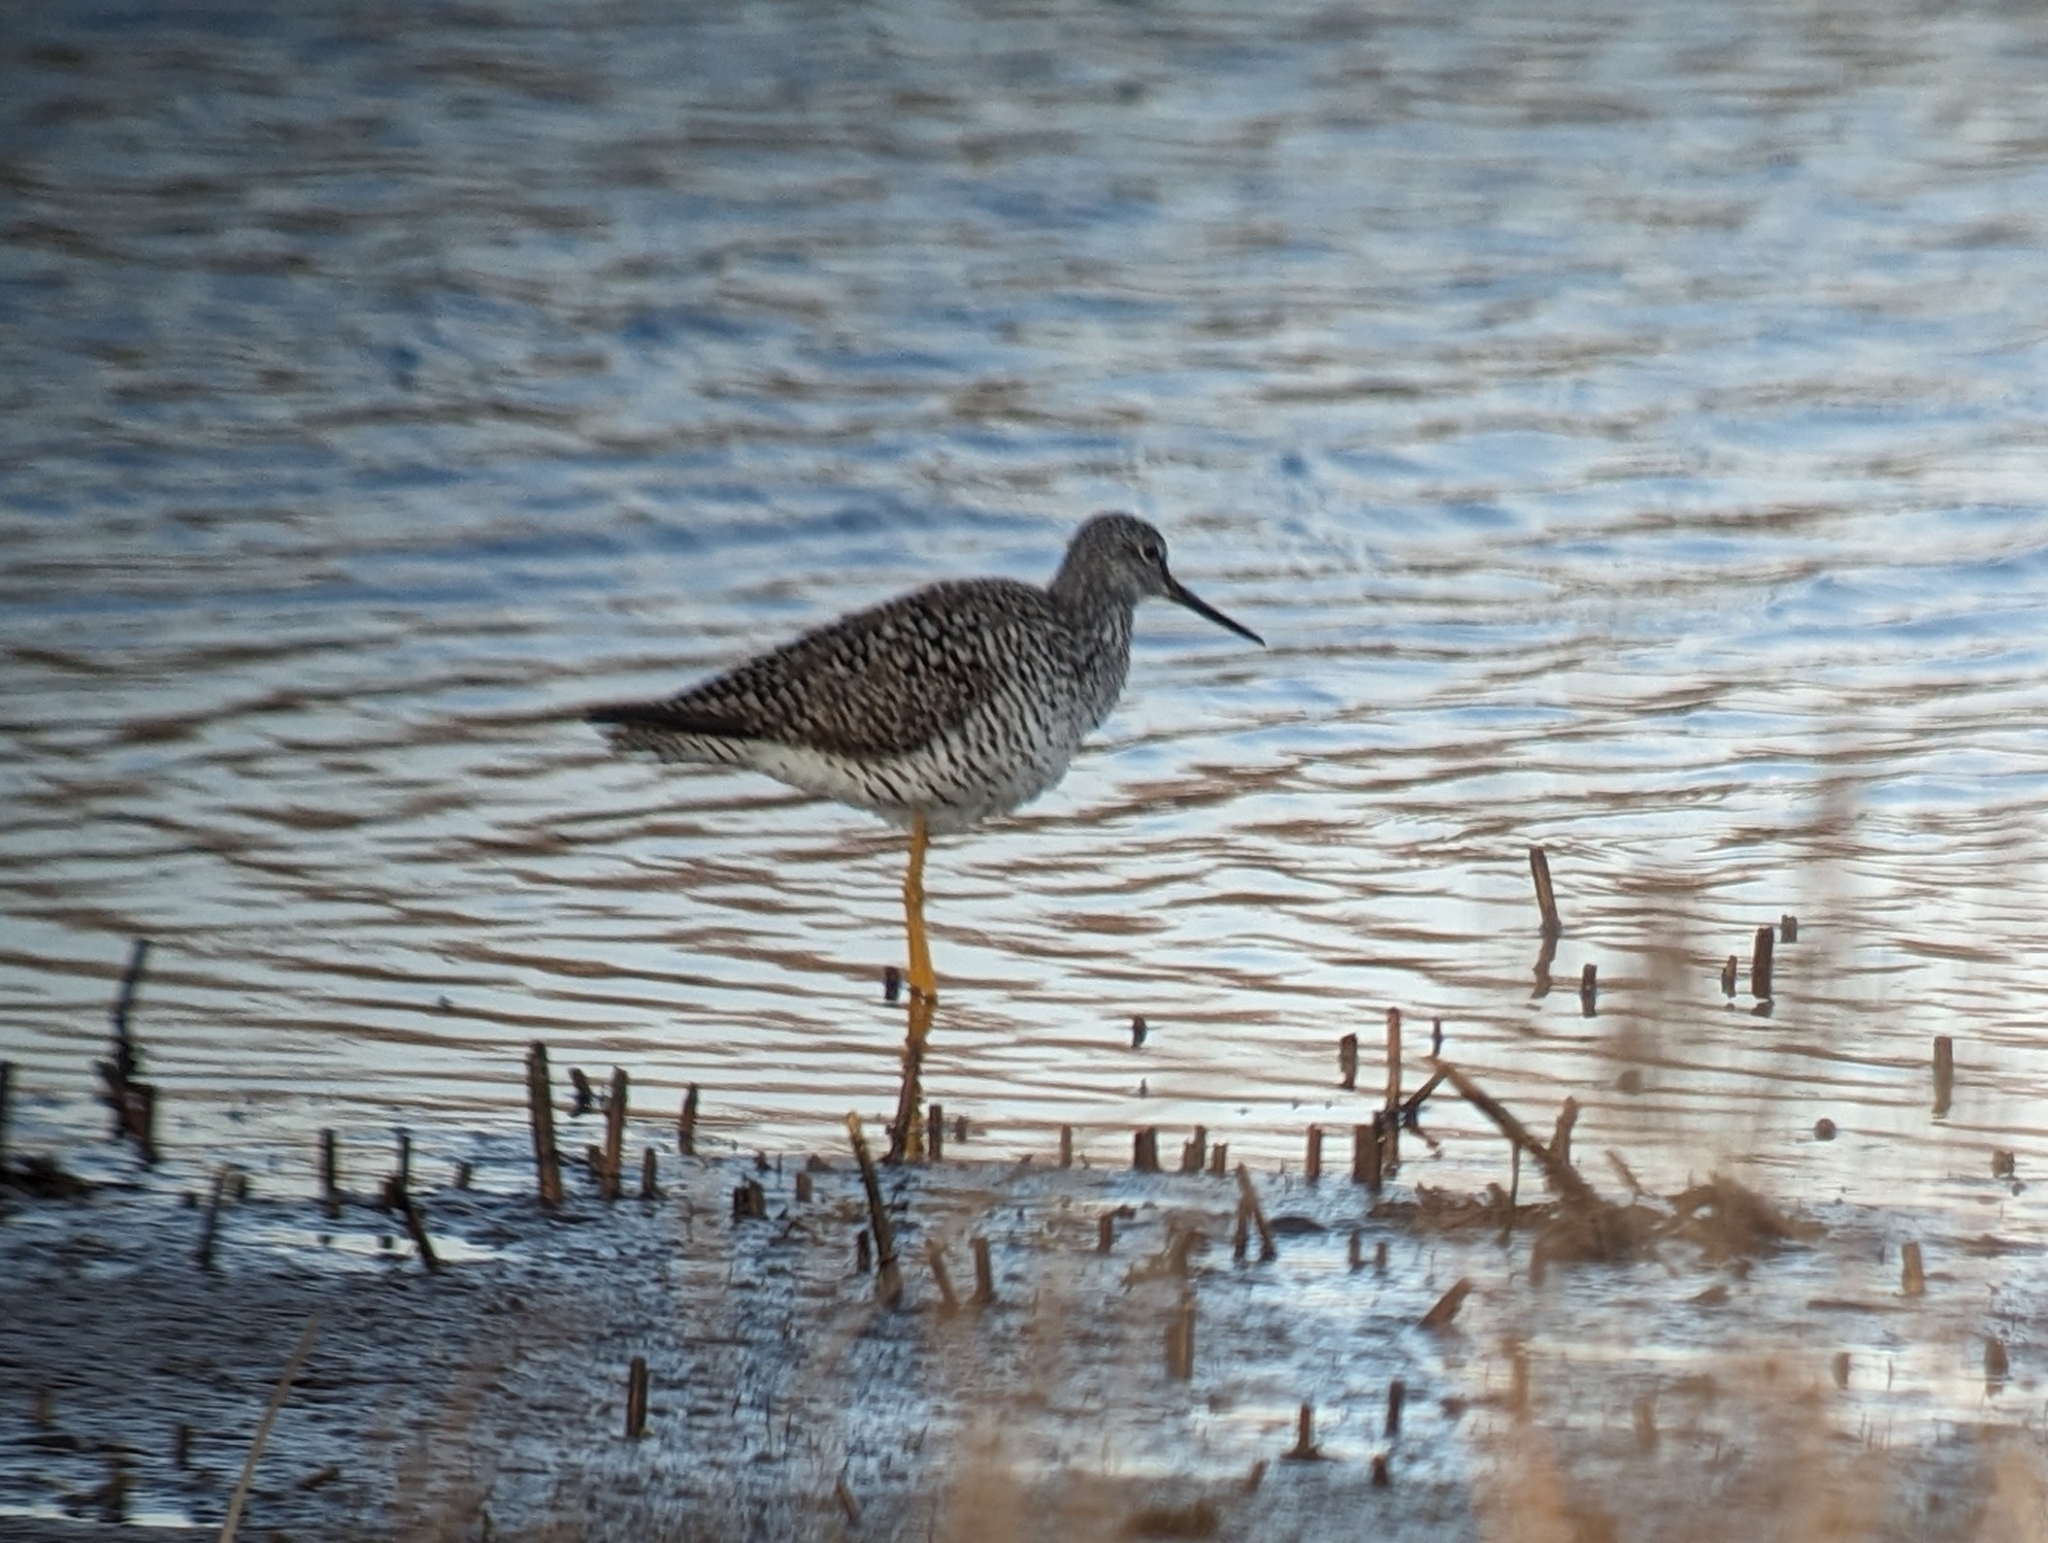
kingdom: Animalia
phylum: Chordata
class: Aves
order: Charadriiformes
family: Scolopacidae
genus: Tringa
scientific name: Tringa melanoleuca
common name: Greater yellowlegs
